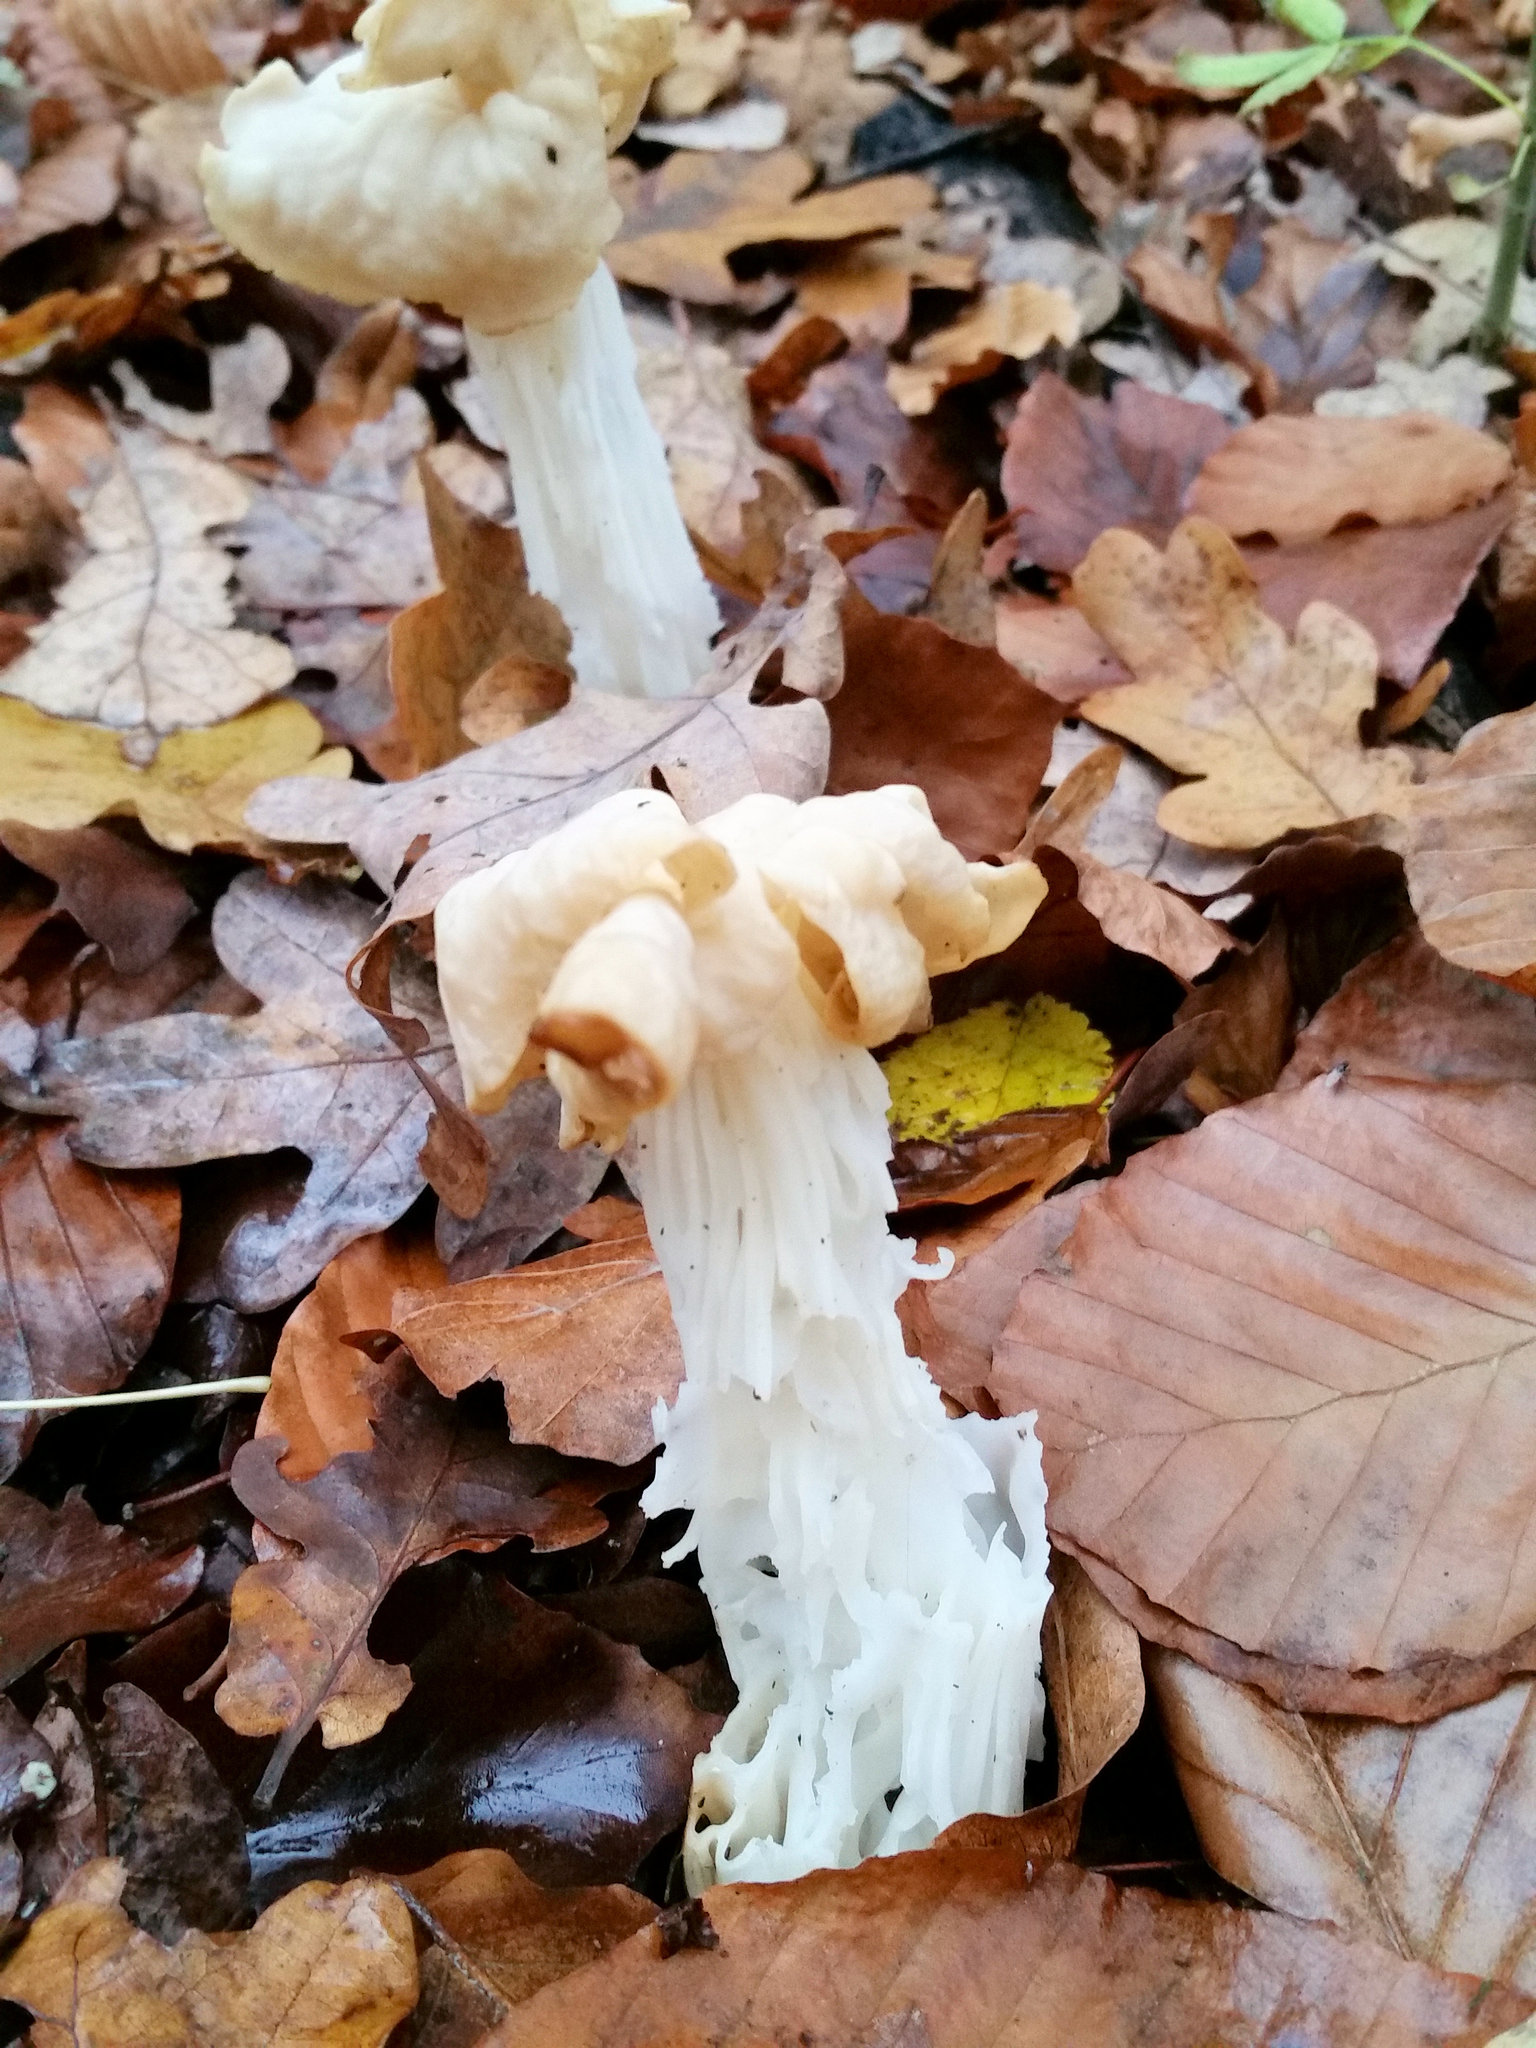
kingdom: Fungi
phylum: Ascomycota
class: Pezizomycetes
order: Pezizales
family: Helvellaceae
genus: Helvella
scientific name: Helvella crispa
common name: White saddle
